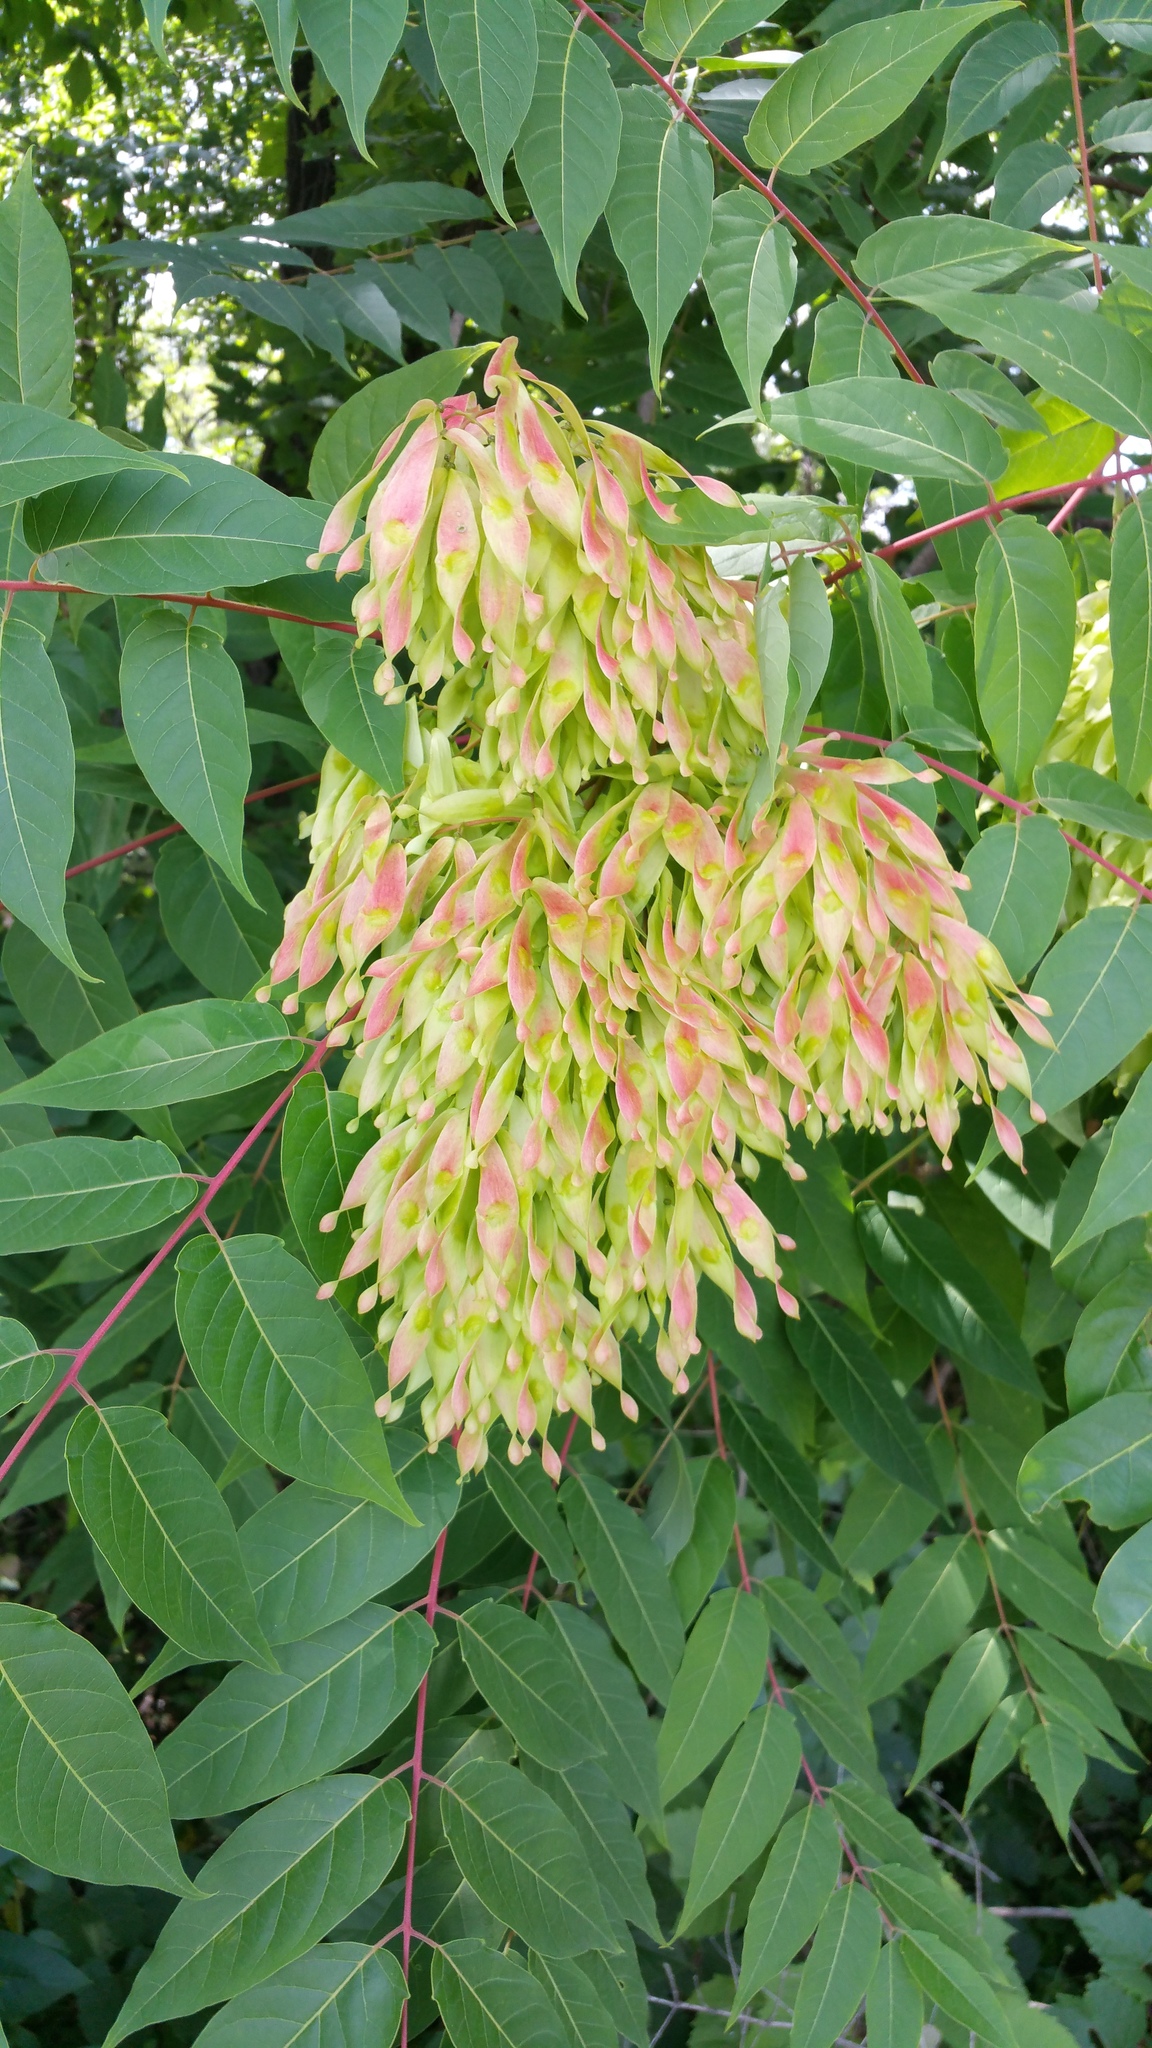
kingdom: Plantae
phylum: Tracheophyta
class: Magnoliopsida
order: Sapindales
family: Simaroubaceae
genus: Ailanthus
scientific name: Ailanthus altissima
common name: Tree-of-heaven
